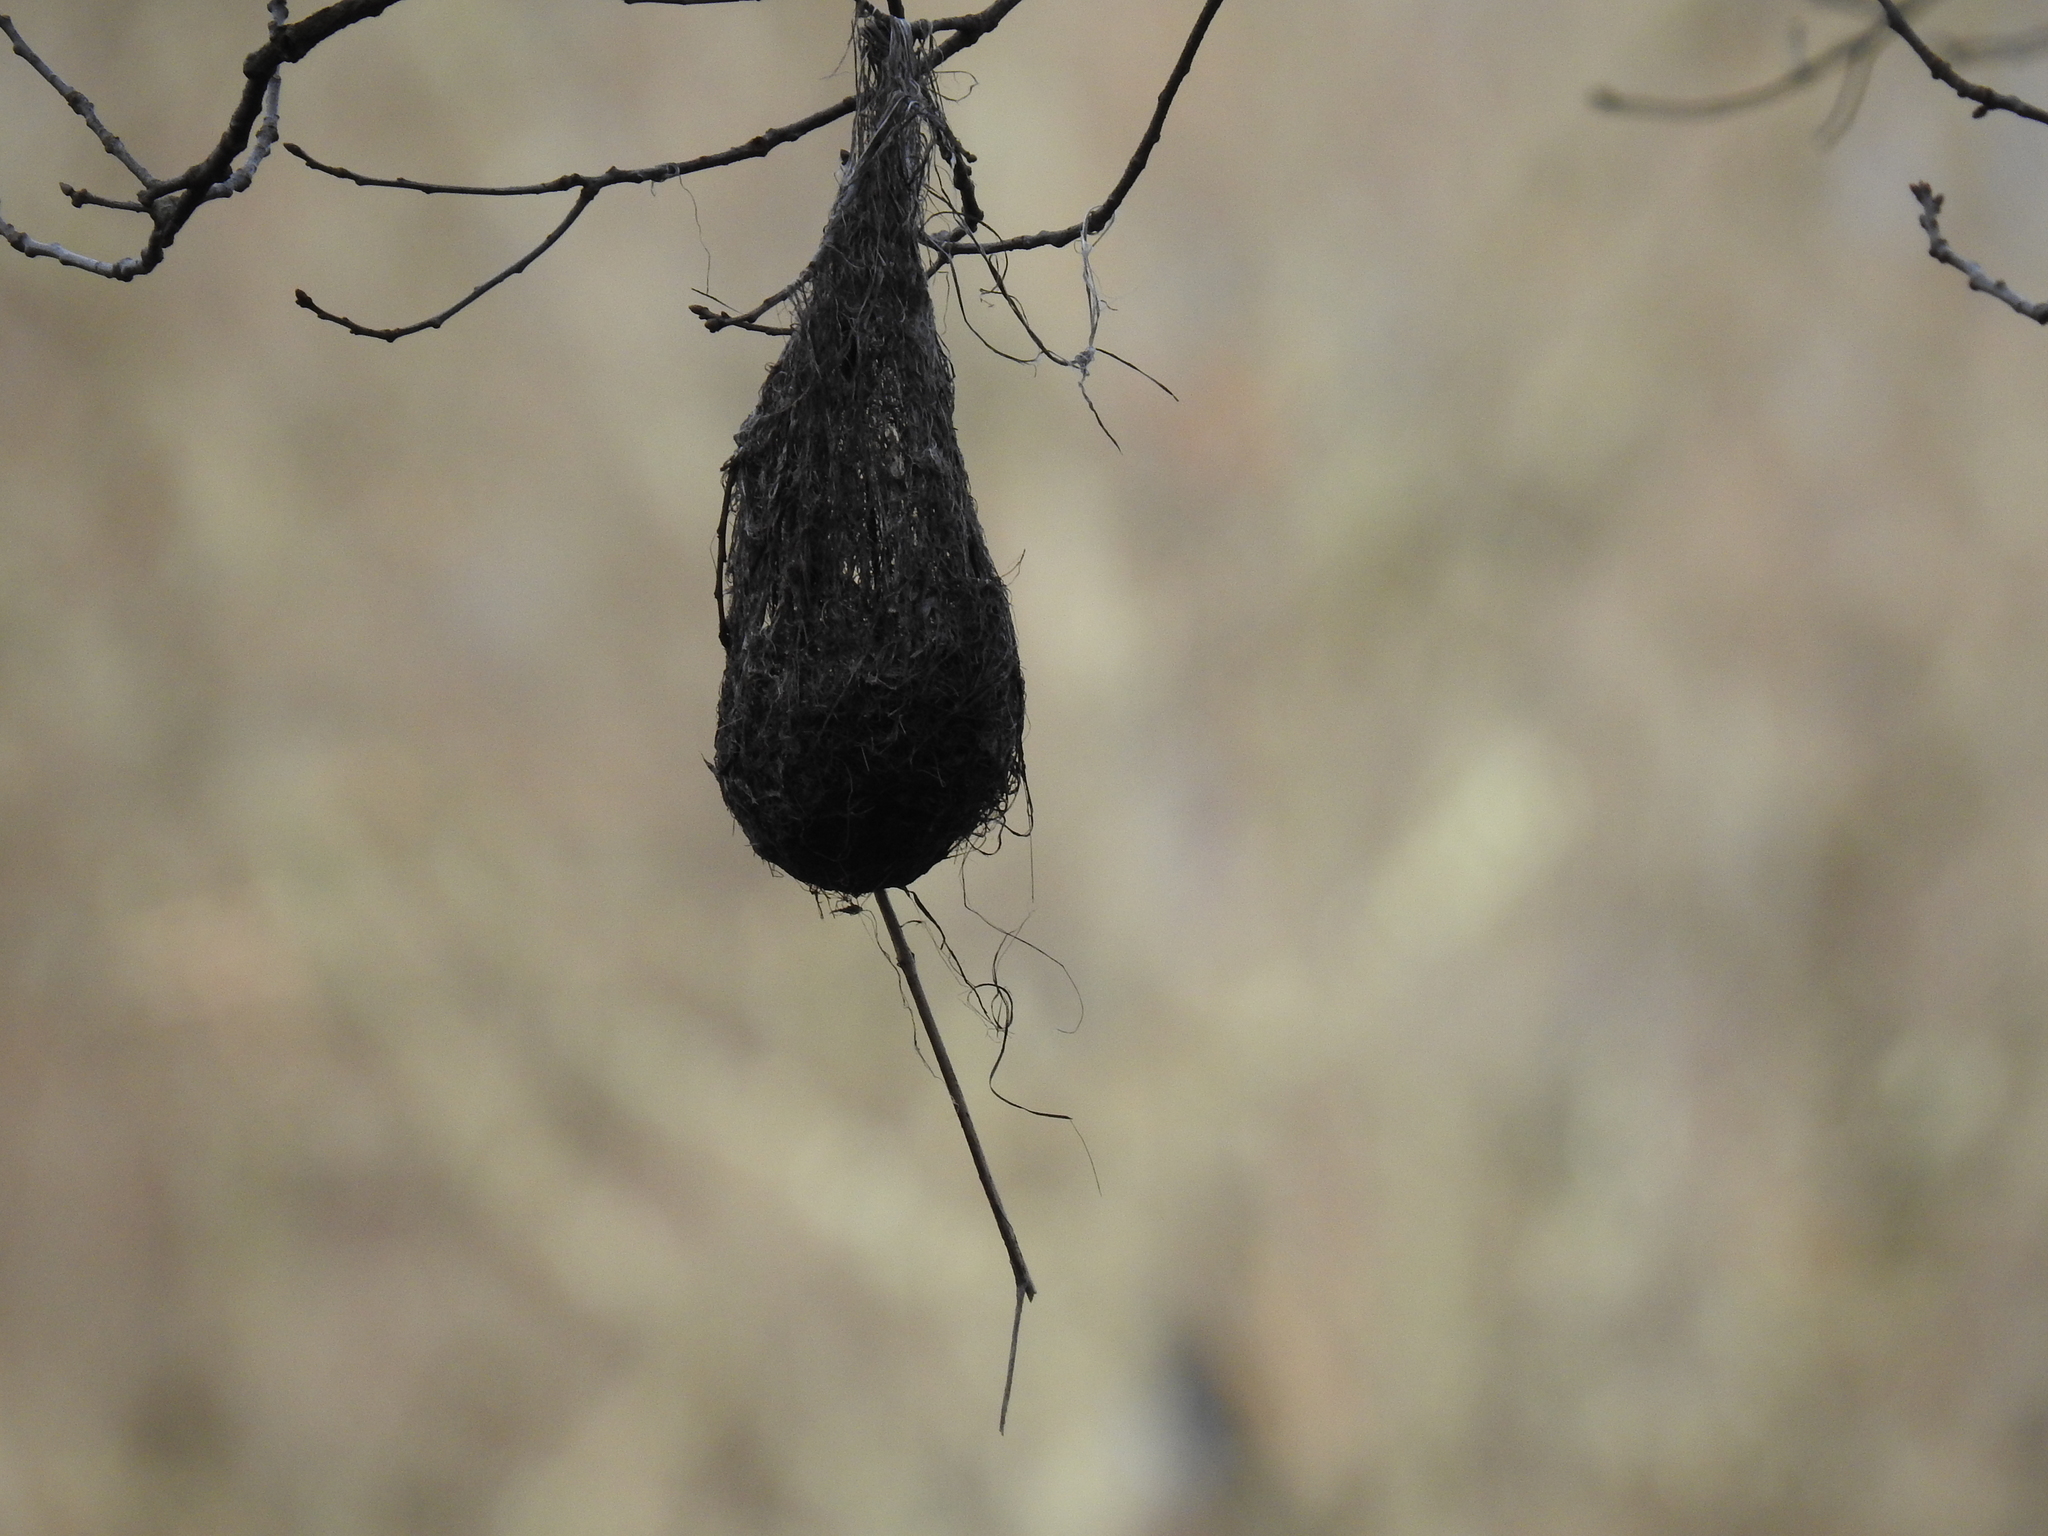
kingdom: Animalia
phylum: Chordata
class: Aves
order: Passeriformes
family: Icteridae
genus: Icterus
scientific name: Icterus galbula
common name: Baltimore oriole
